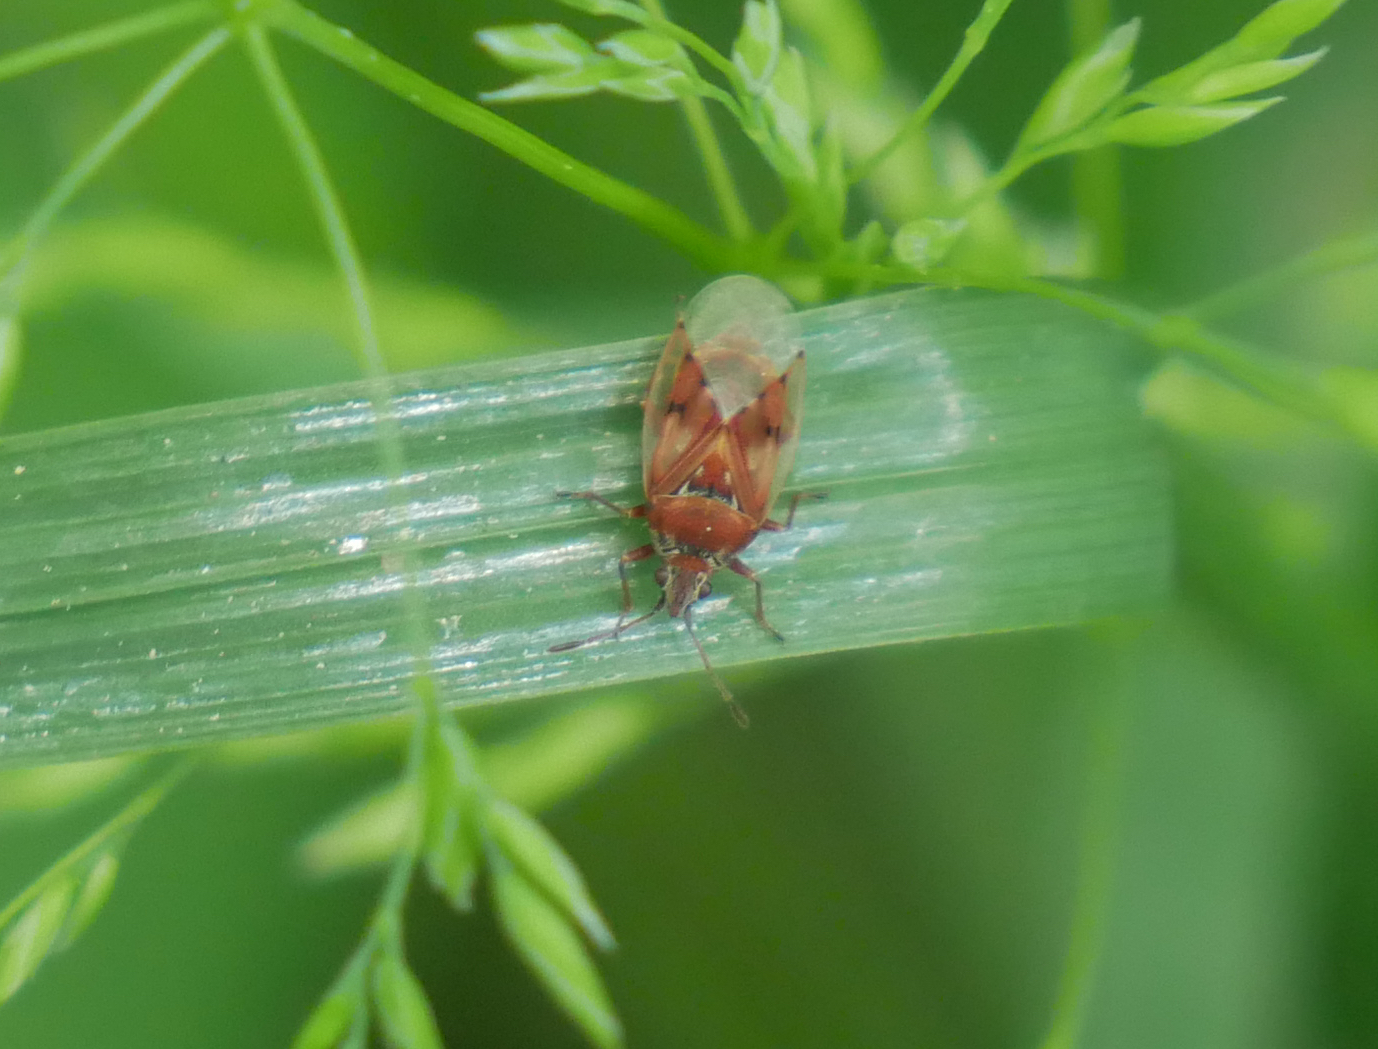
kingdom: Animalia
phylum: Arthropoda
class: Insecta
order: Hemiptera
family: Lygaeidae
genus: Kleidocerys
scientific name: Kleidocerys resedae
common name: Birch catkin bug
